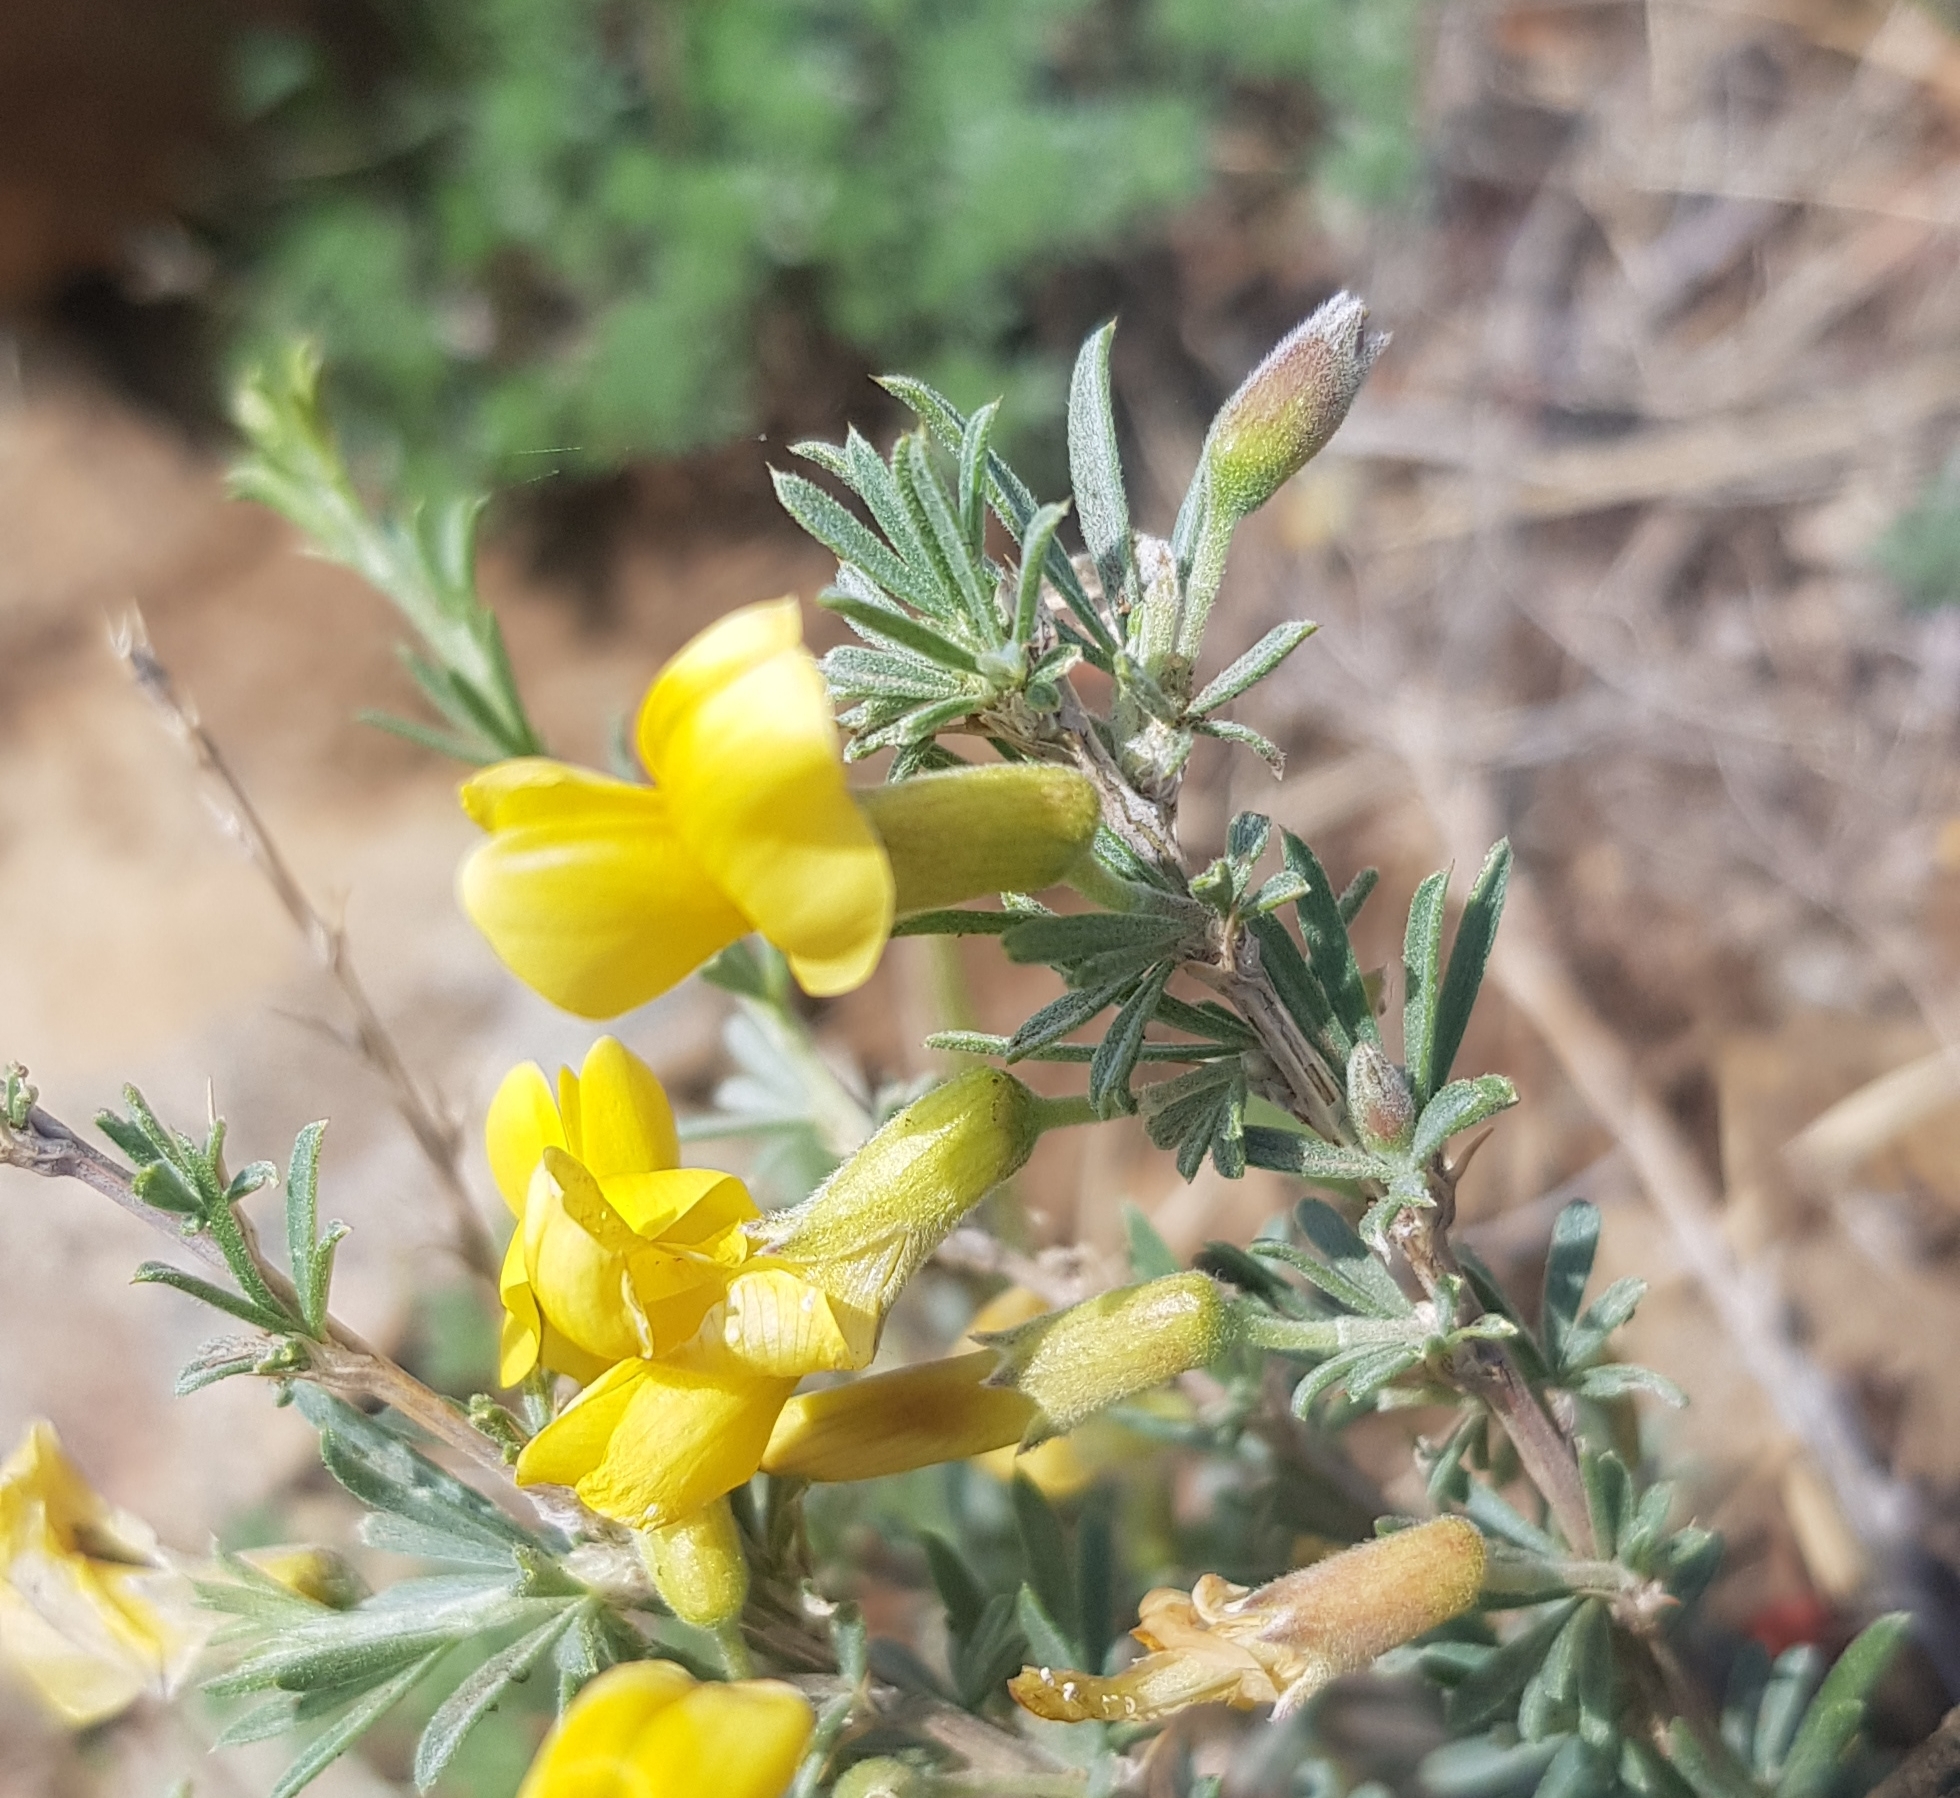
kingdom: Plantae
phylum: Tracheophyta
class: Magnoliopsida
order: Fabales
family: Fabaceae
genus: Caragana
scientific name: Caragana pygmaea
